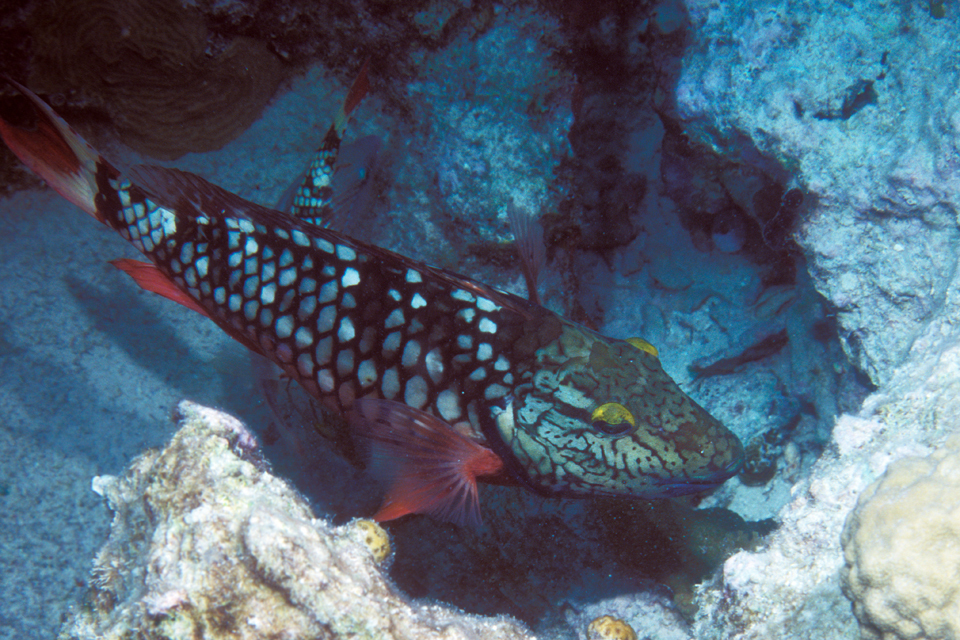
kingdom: Animalia
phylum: Chordata
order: Perciformes
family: Scaridae
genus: Sparisoma
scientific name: Sparisoma viride
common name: Stoplight parrotfish
